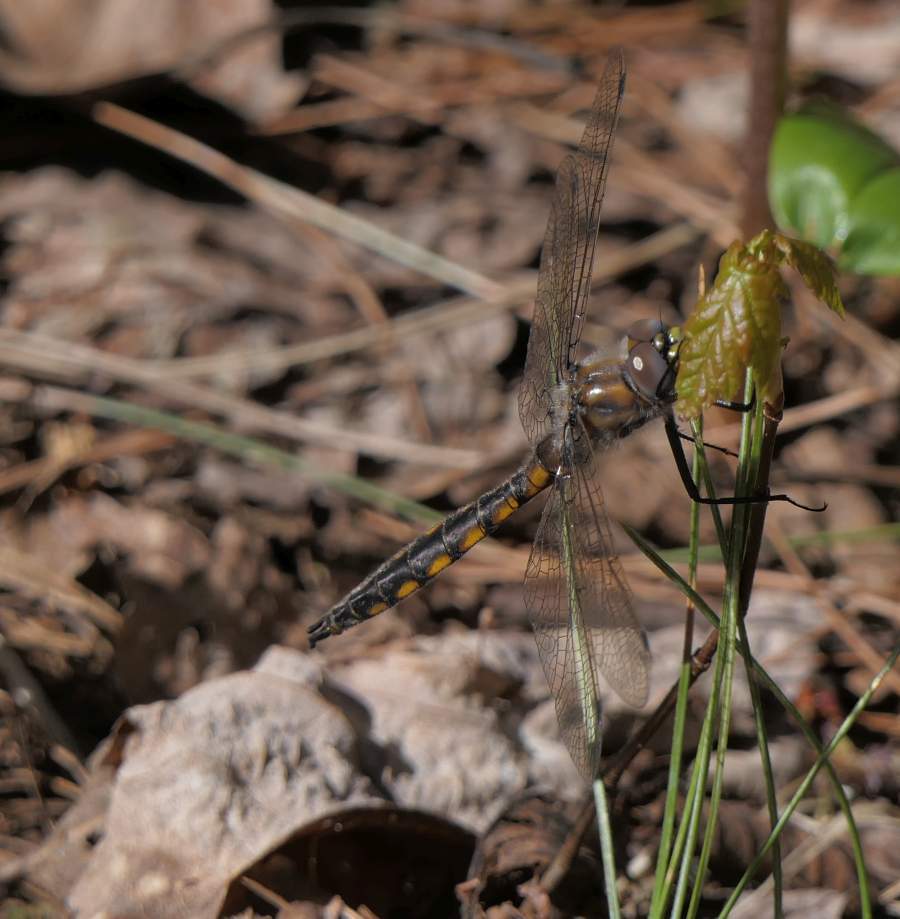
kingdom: Animalia
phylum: Arthropoda
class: Insecta
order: Odonata
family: Corduliidae
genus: Epitheca
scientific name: Epitheca canis
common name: Beaverpond baskettail
